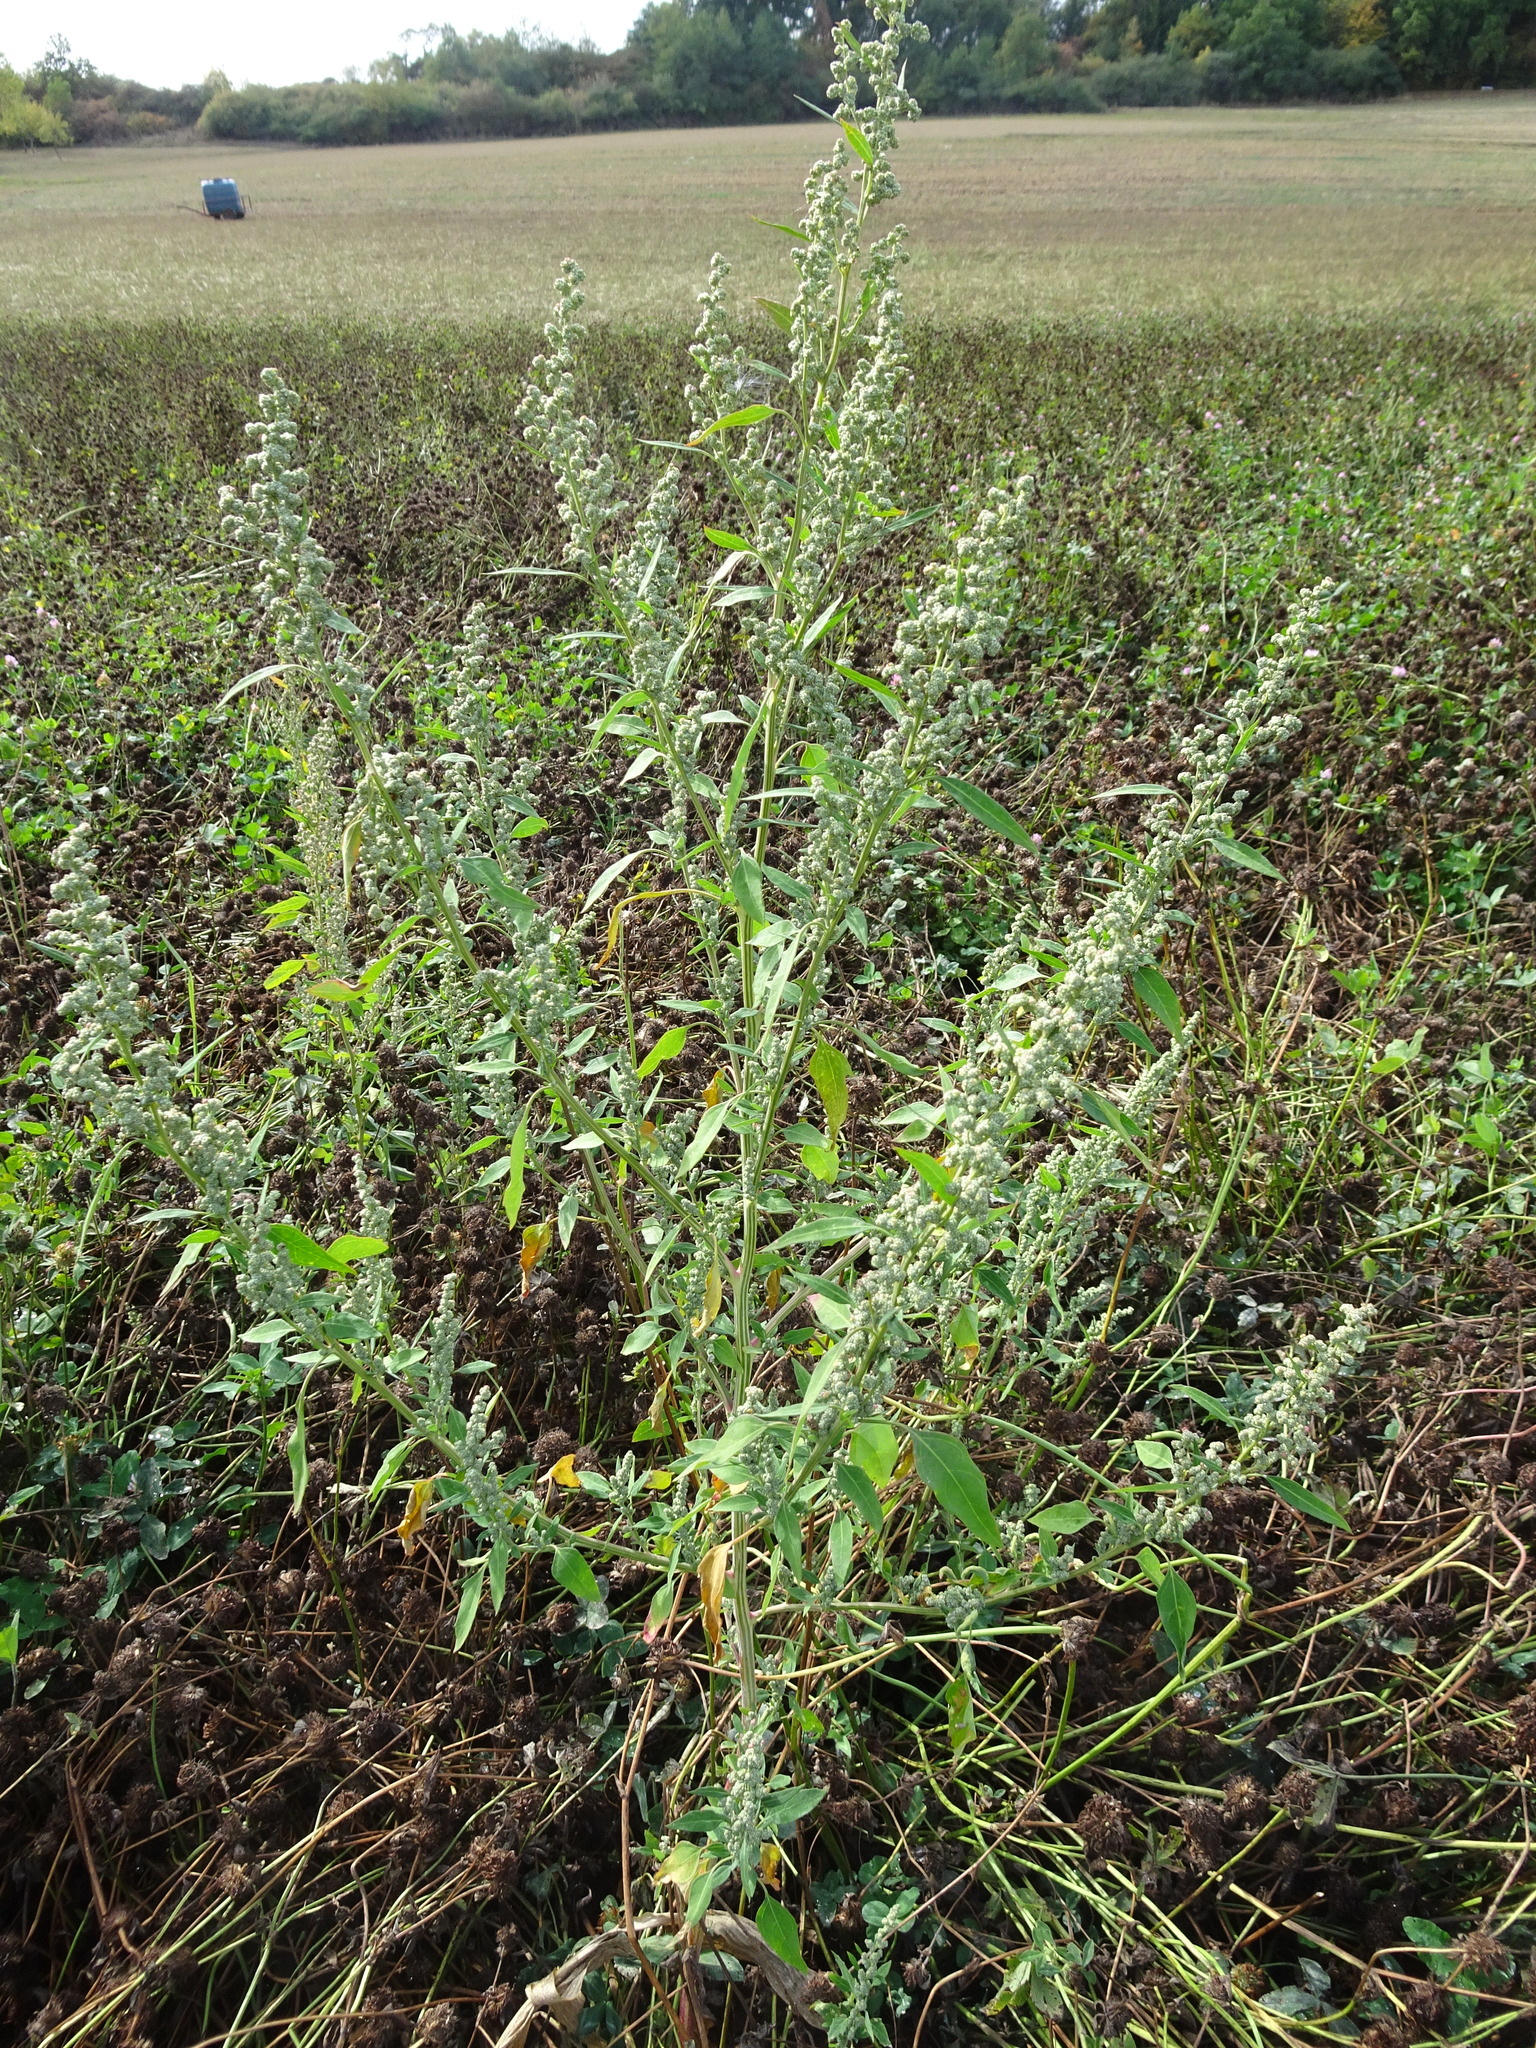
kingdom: Plantae
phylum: Tracheophyta
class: Magnoliopsida
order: Caryophyllales
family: Amaranthaceae
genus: Chenopodium
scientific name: Chenopodium album
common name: Fat-hen
